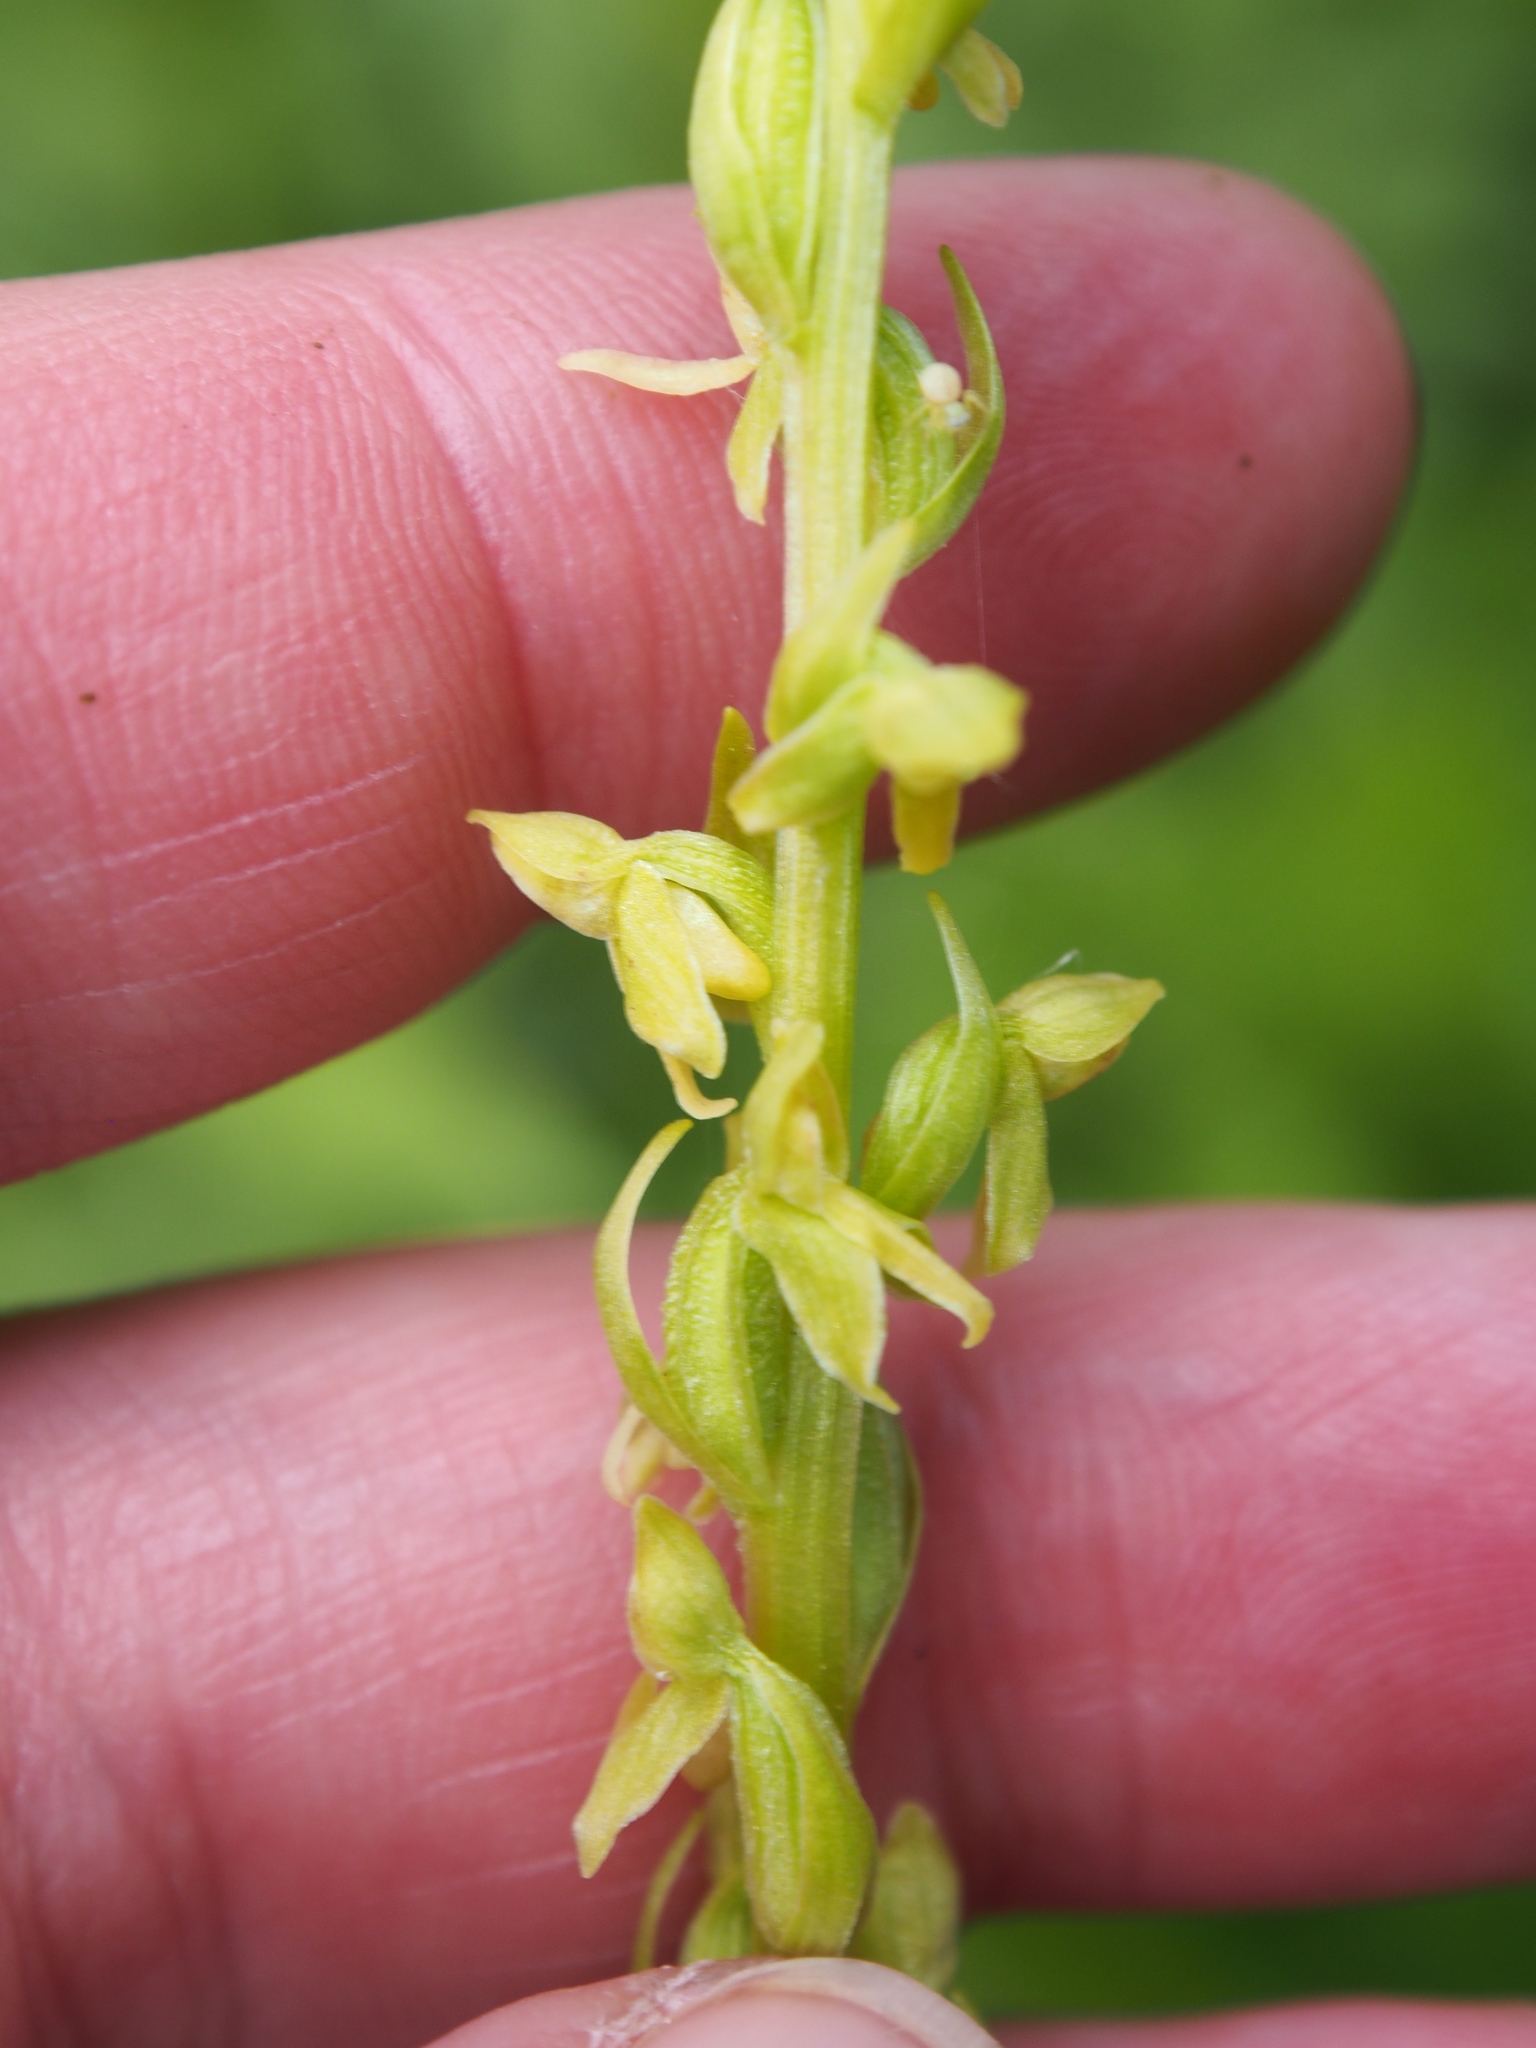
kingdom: Plantae
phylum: Tracheophyta
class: Liliopsida
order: Asparagales
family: Orchidaceae
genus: Platanthera
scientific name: Platanthera stricta
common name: Slender bog orchid
